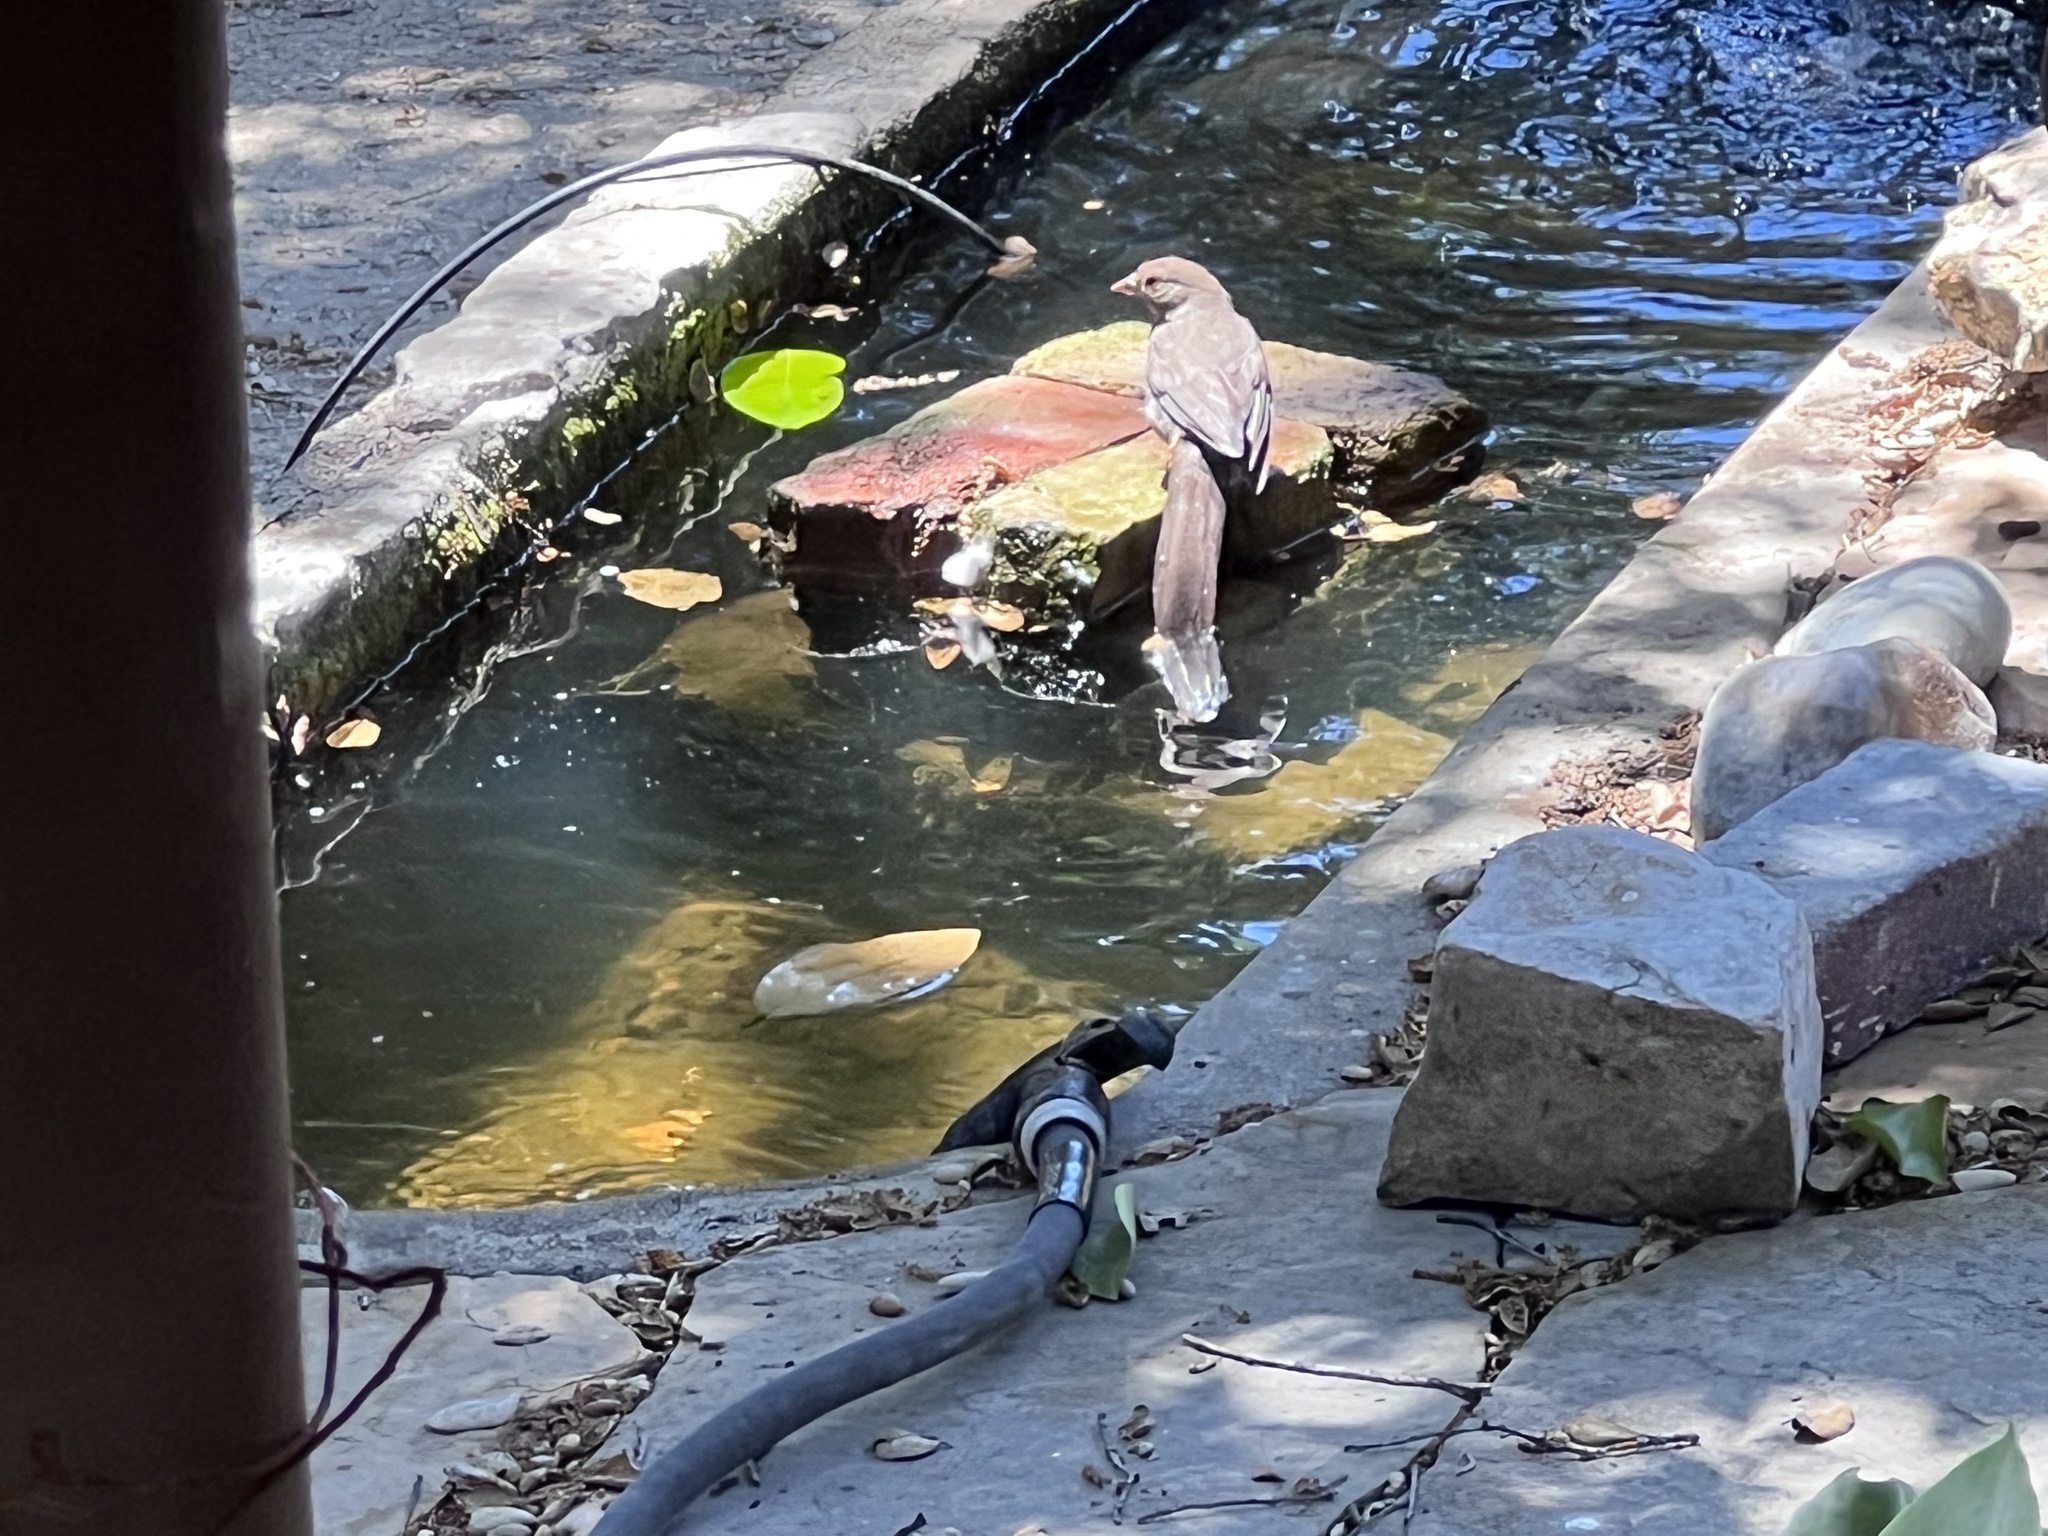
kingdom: Animalia
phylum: Chordata
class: Aves
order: Passeriformes
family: Passerellidae
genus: Melozone
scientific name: Melozone crissalis
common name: California towhee
